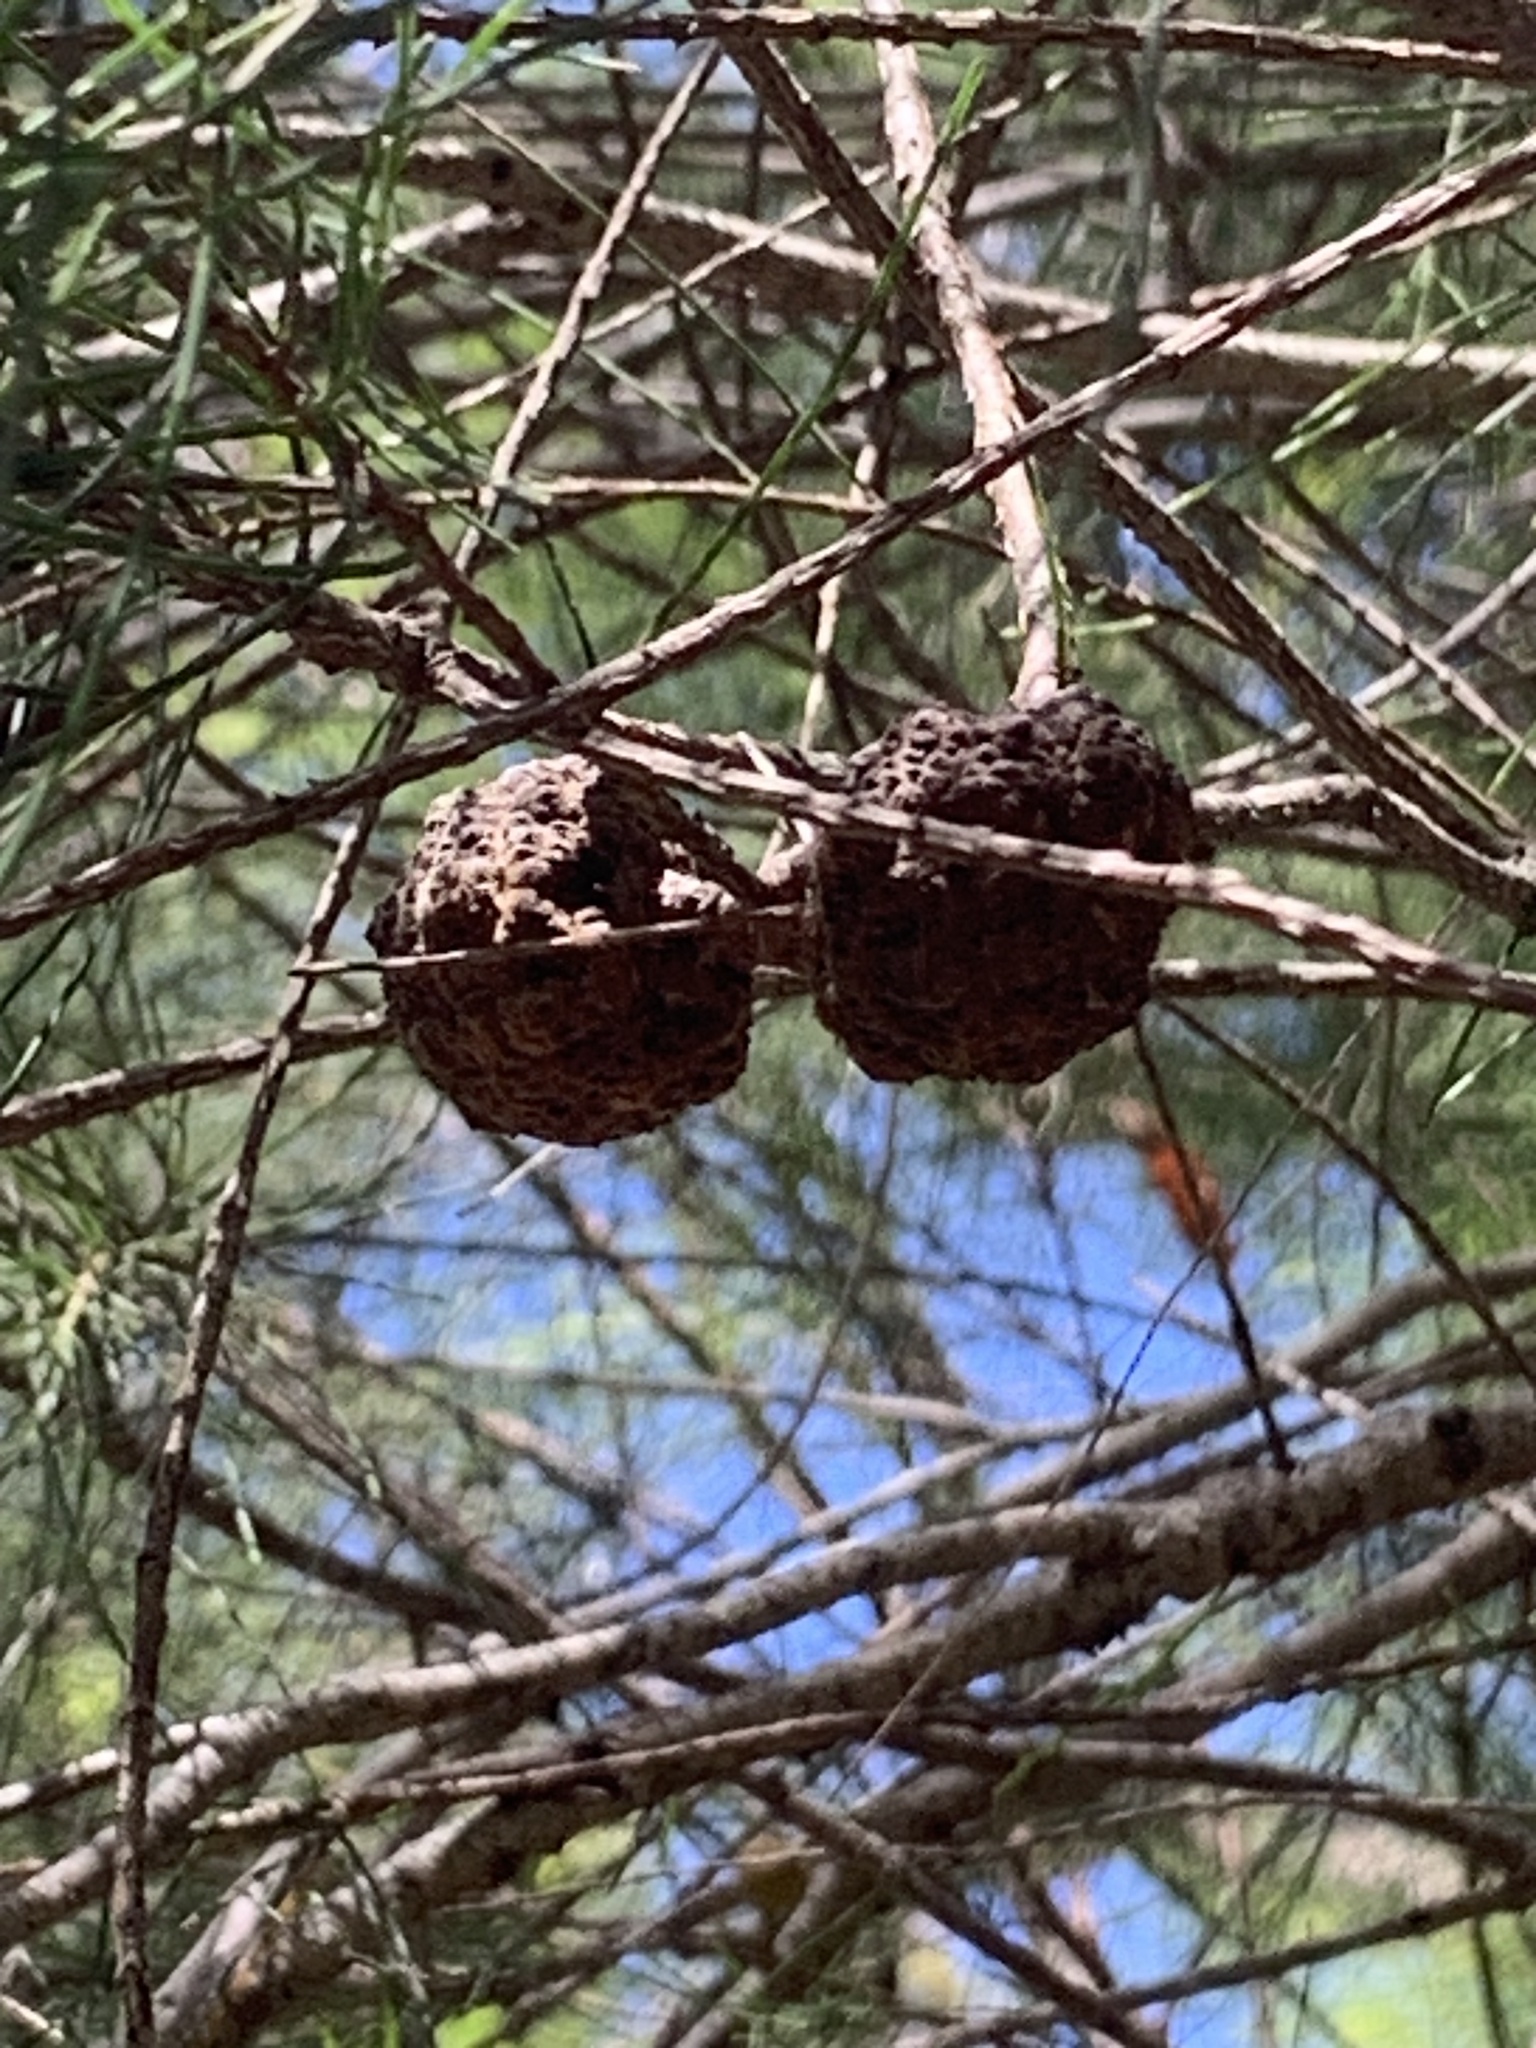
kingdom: Plantae
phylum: Tracheophyta
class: Magnoliopsida
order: Fagales
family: Casuarinaceae
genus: Allocasuarina
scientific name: Allocasuarina decussata
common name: Karri she-oak
